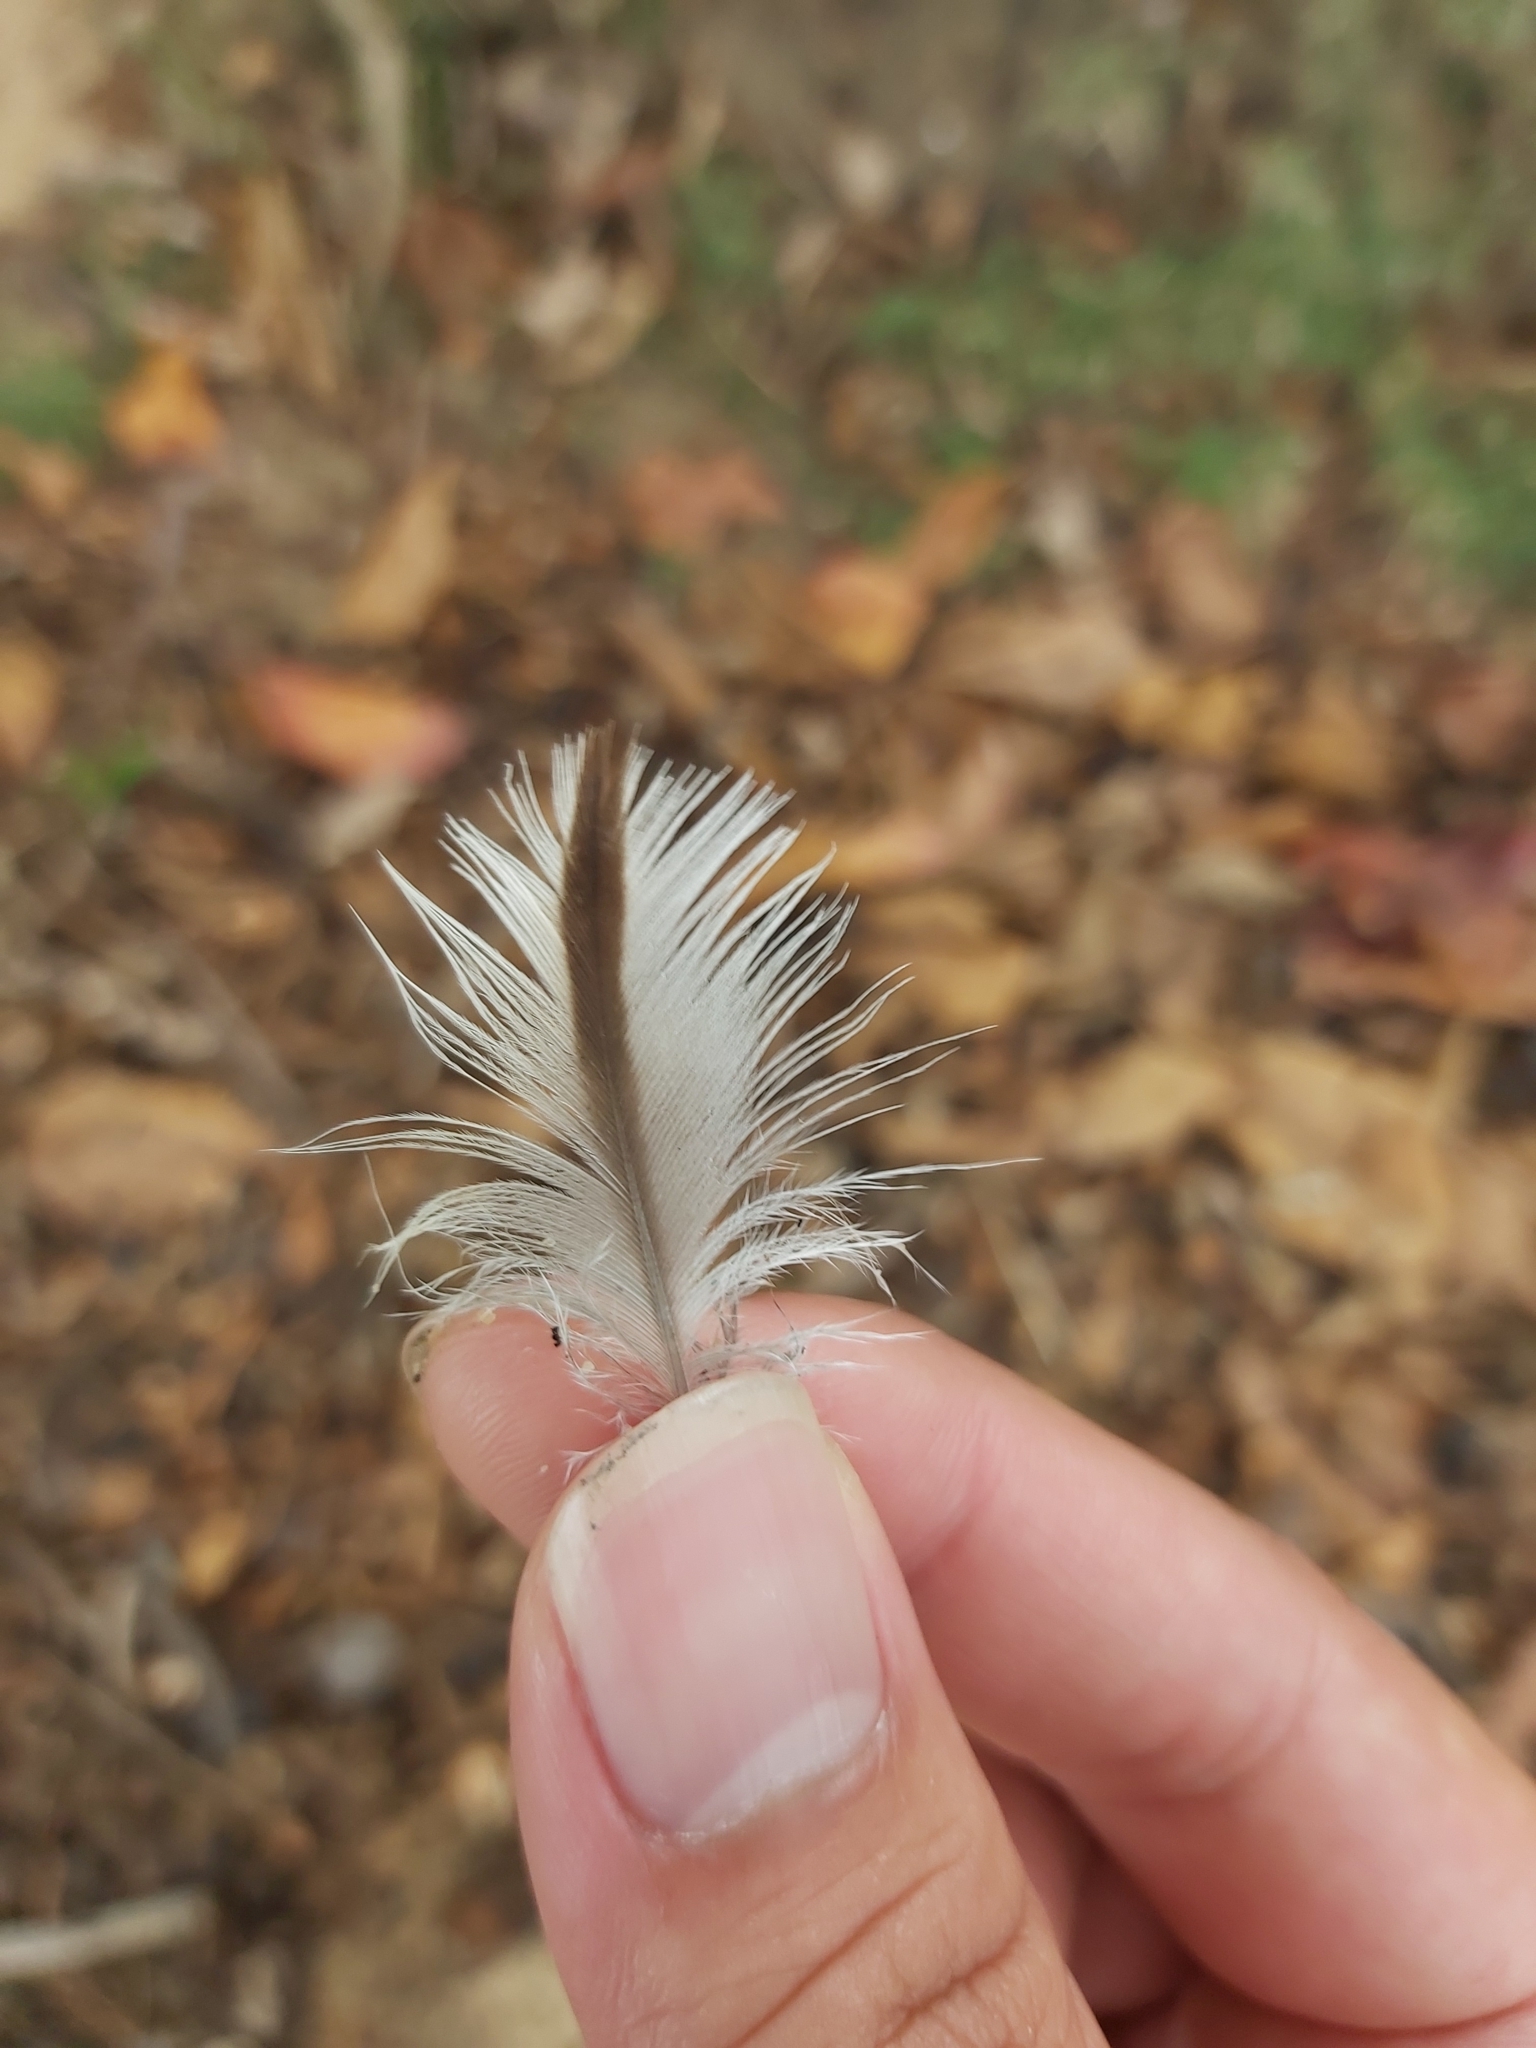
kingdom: Animalia
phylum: Chordata
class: Aves
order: Charadriiformes
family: Burhinidae
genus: Burhinus
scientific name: Burhinus grallarius
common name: Bush stone-curlew
